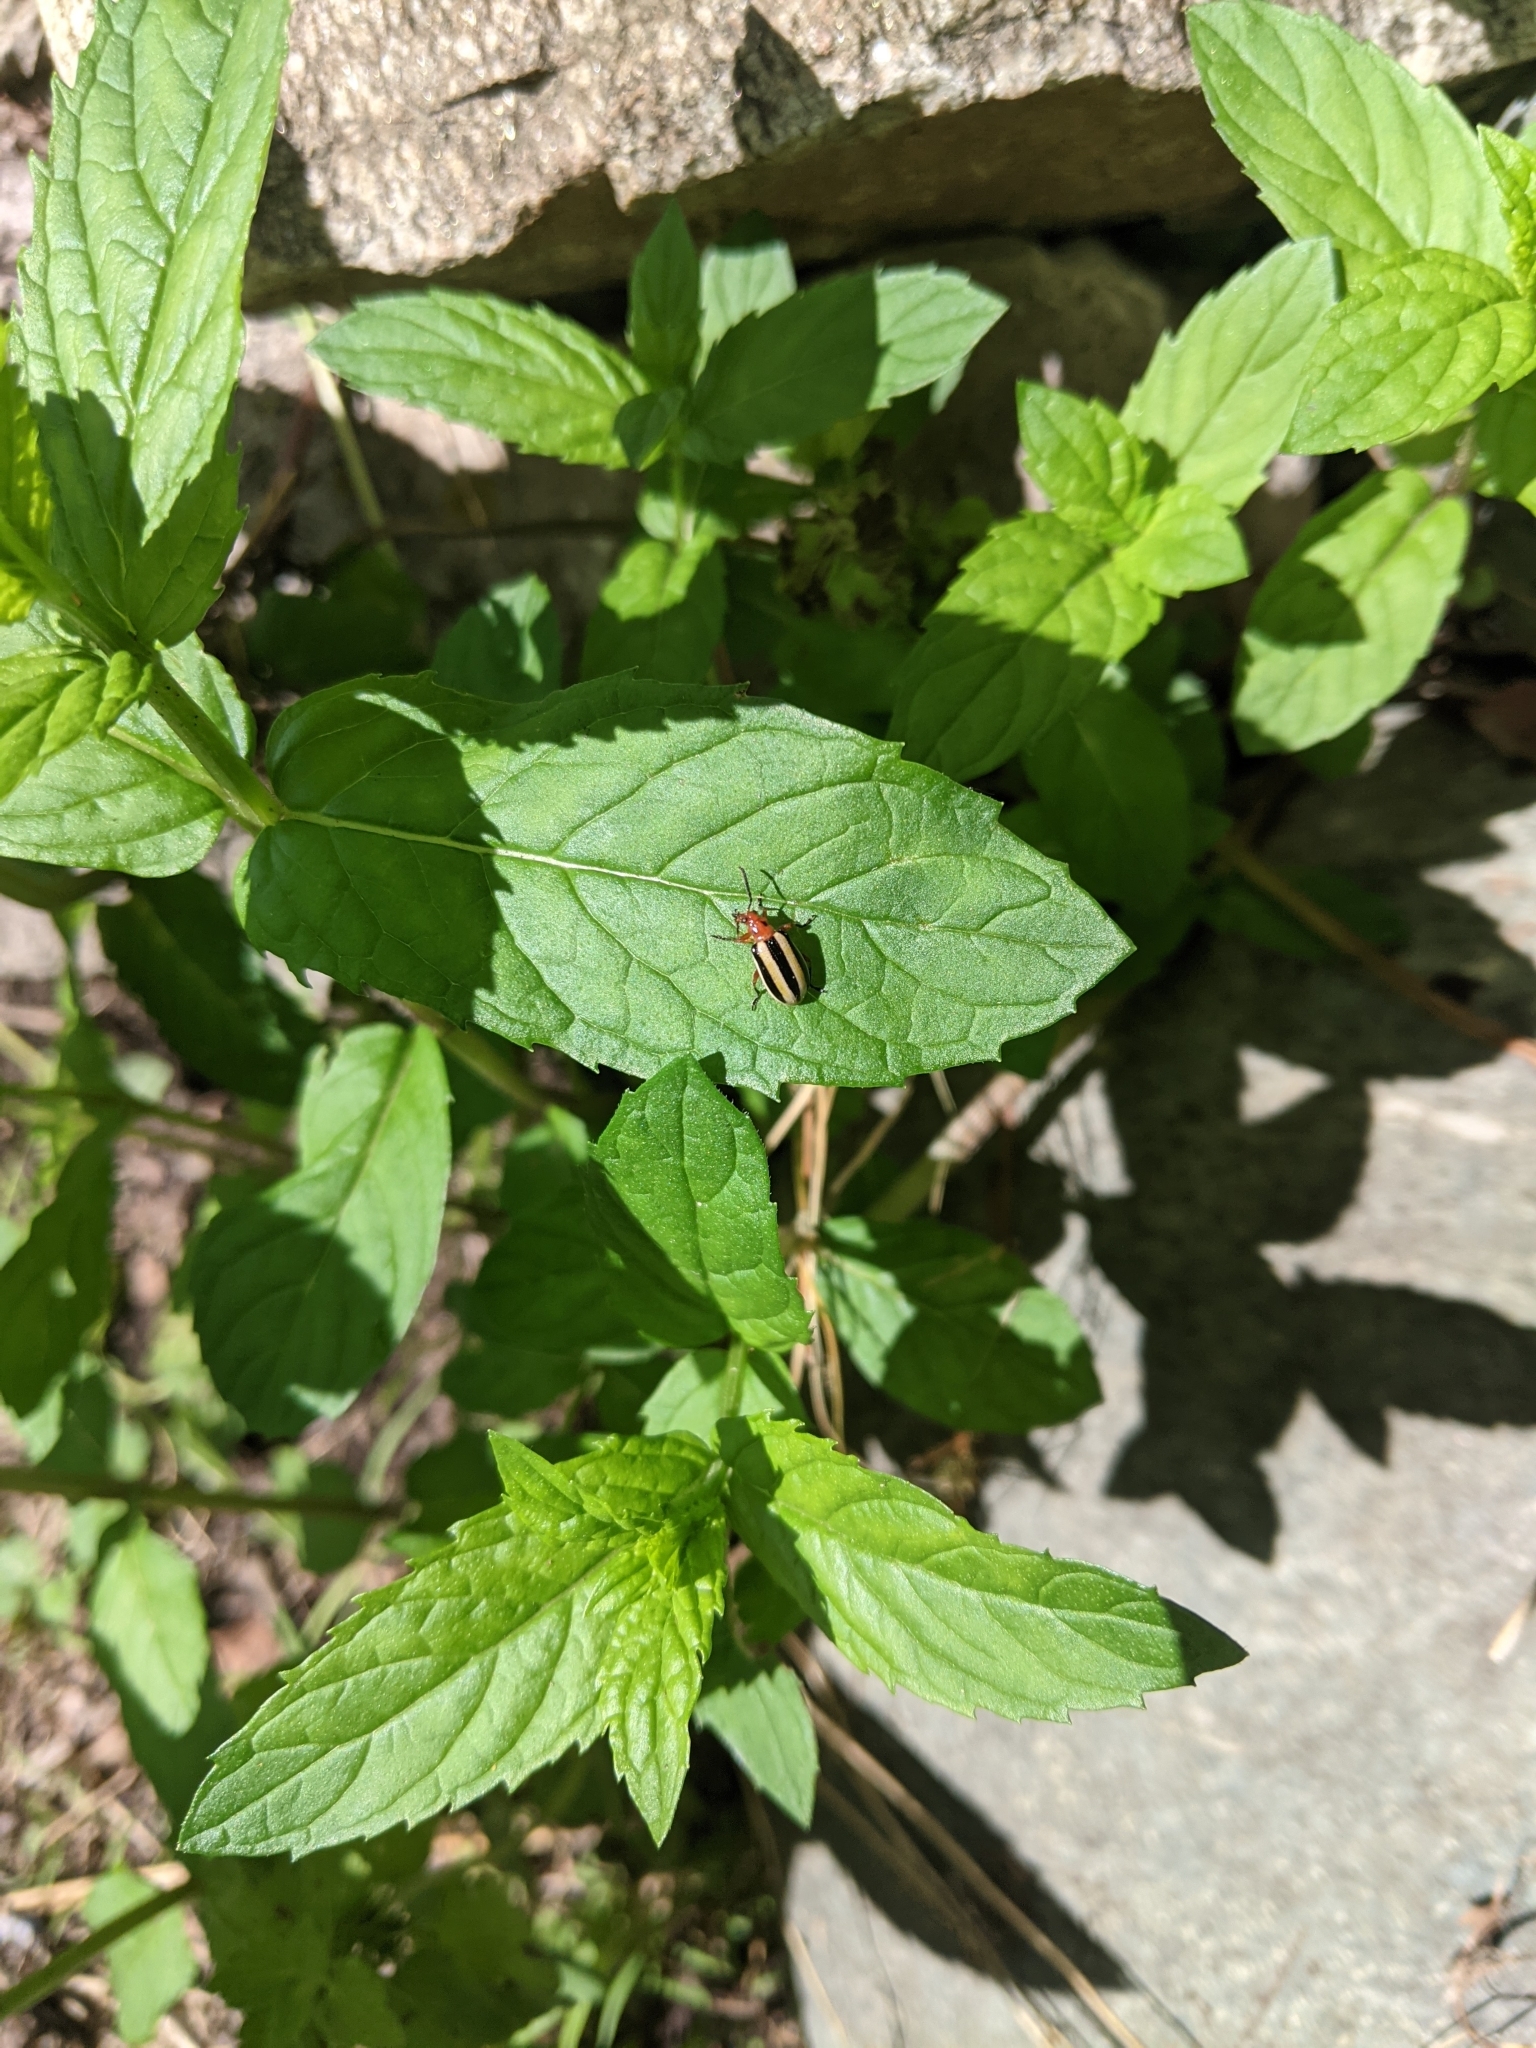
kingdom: Animalia
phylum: Arthropoda
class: Insecta
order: Hemiptera
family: Miridae
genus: Poecilocapsus
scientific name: Poecilocapsus lineatus
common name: Four-lined plant bug
